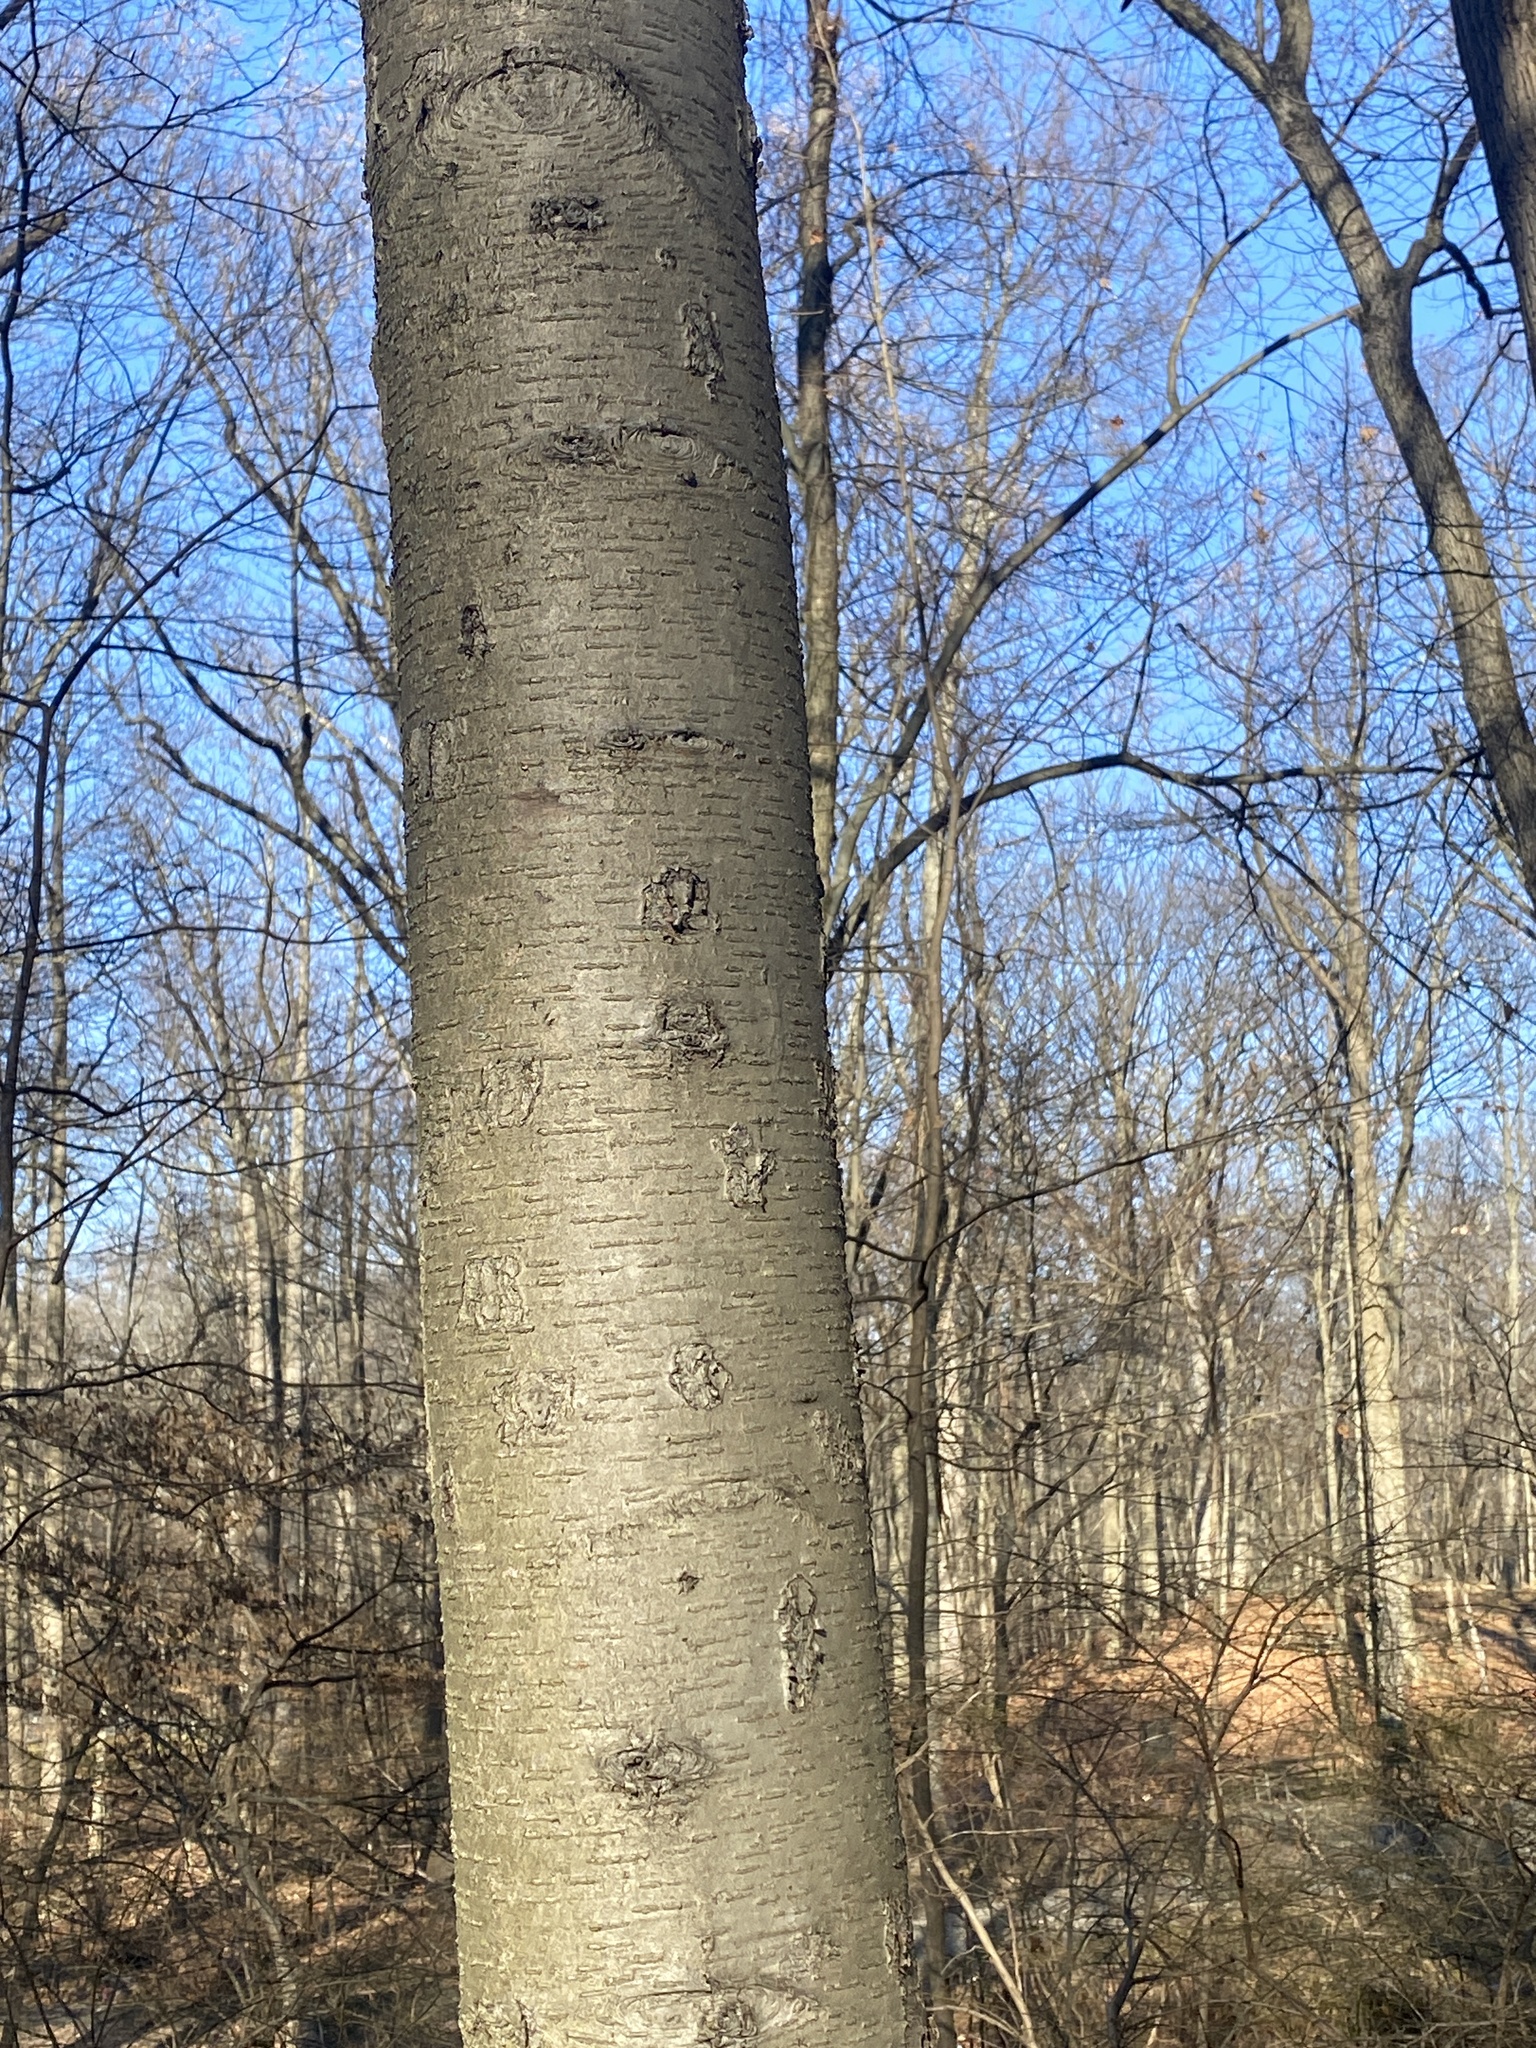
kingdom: Plantae
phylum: Tracheophyta
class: Magnoliopsida
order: Fagales
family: Betulaceae
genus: Betula
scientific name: Betula lenta
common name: Black birch
